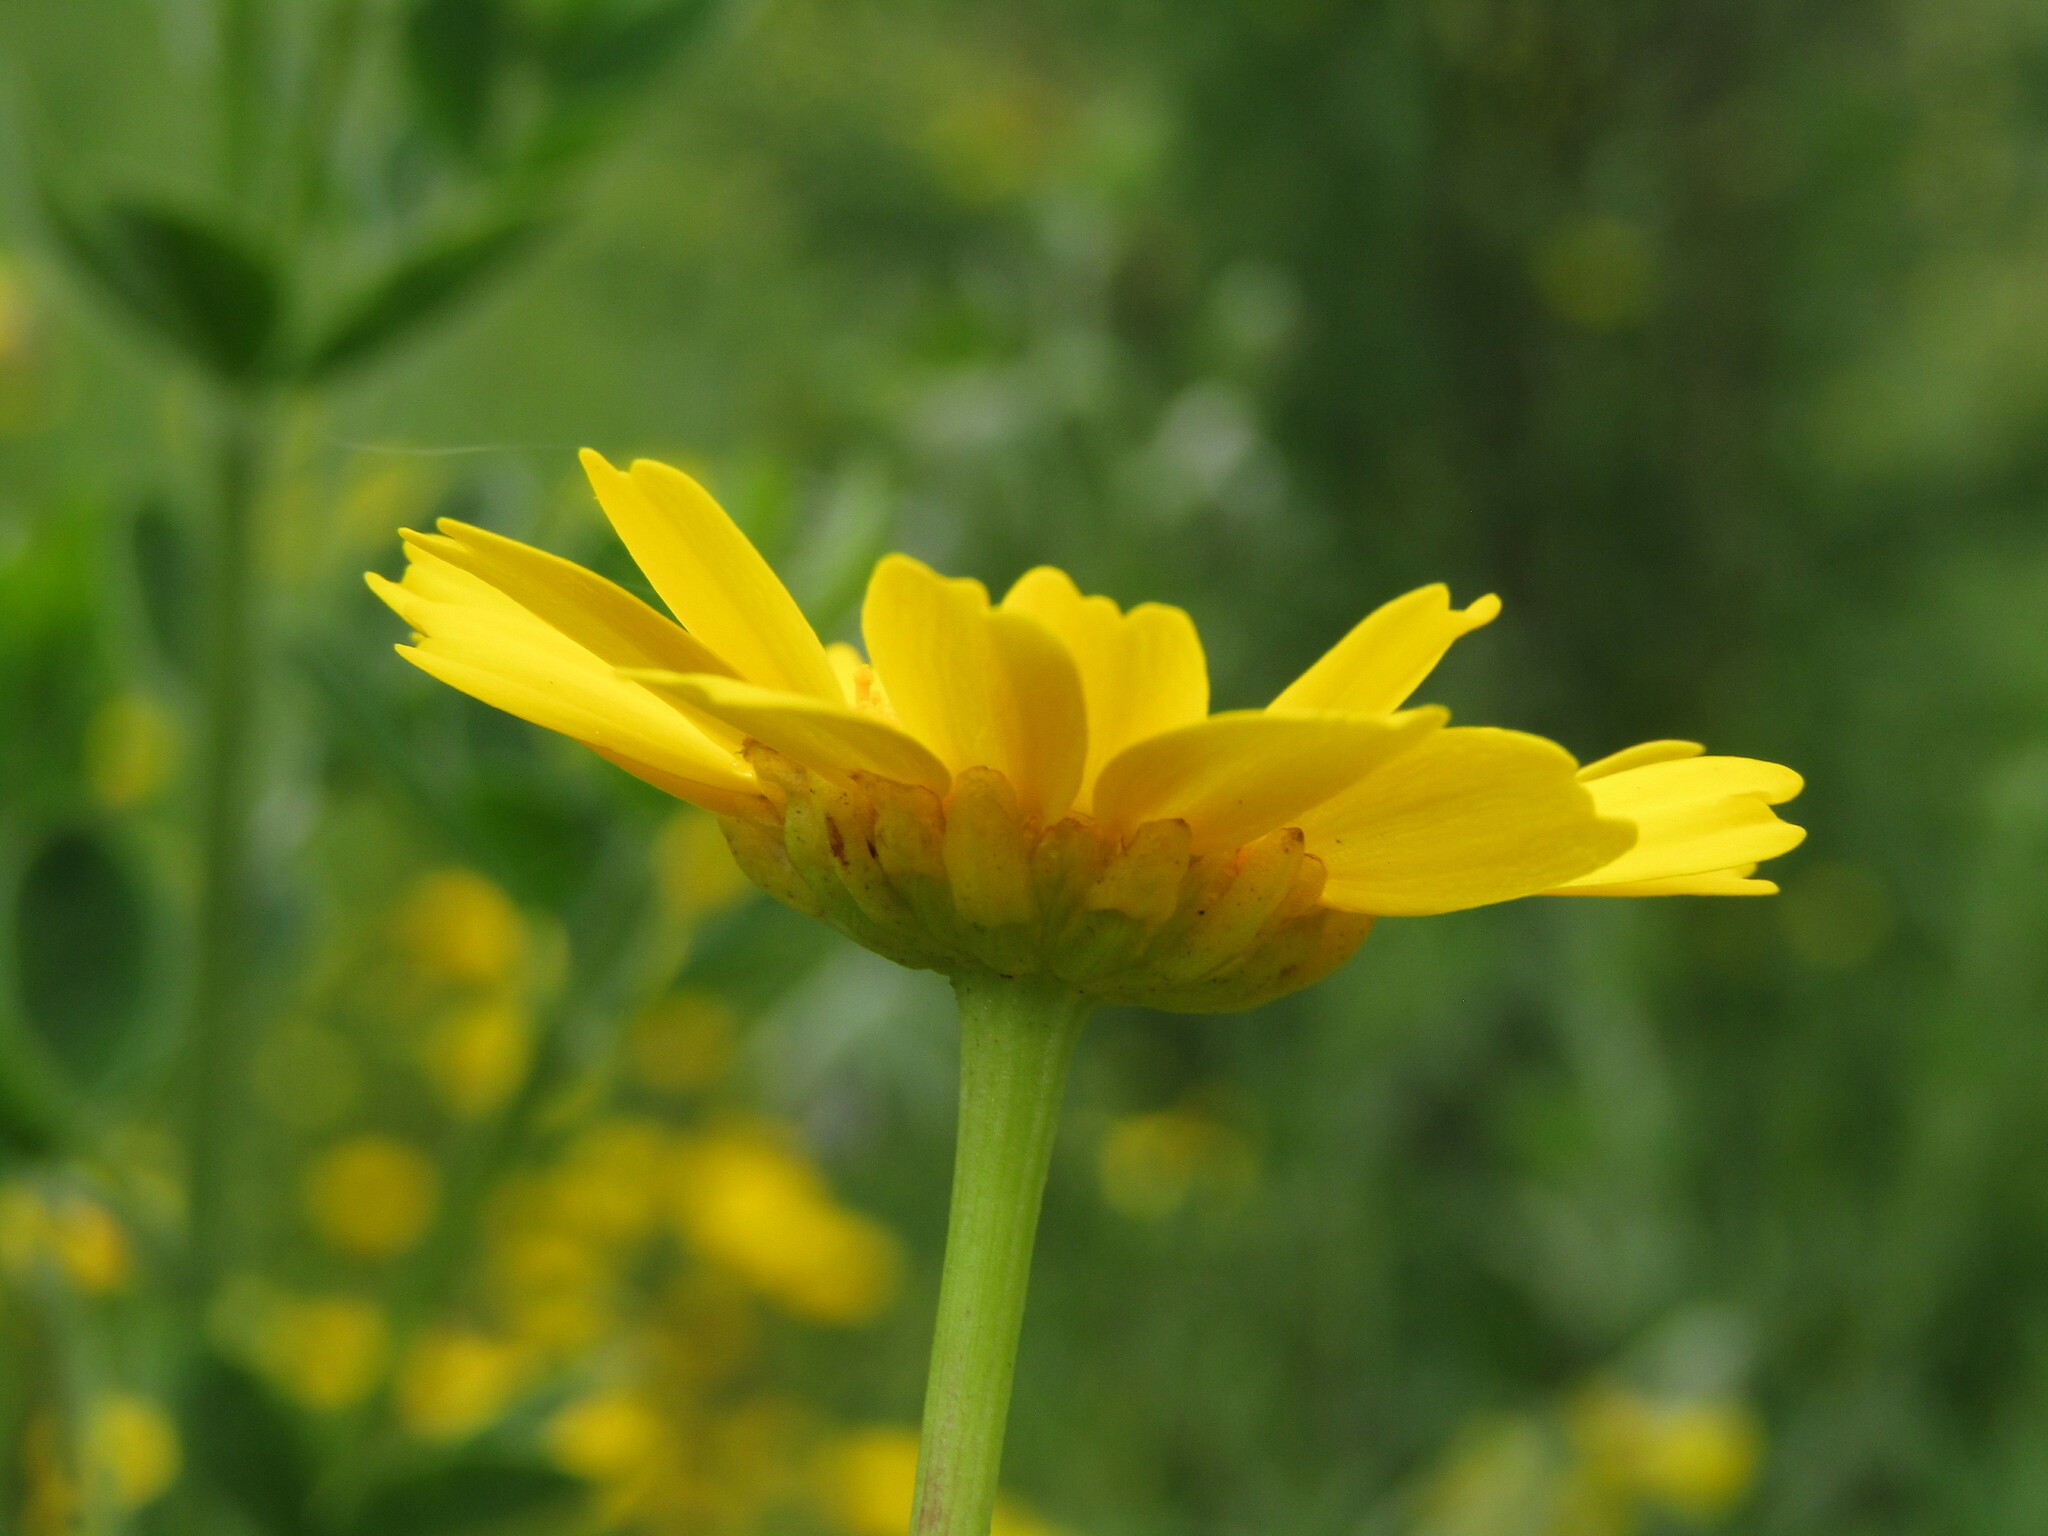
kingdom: Plantae
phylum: Tracheophyta
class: Magnoliopsida
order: Asterales
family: Asteraceae
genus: Coleostephus
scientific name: Coleostephus myconis
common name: Mediterranean marigold
